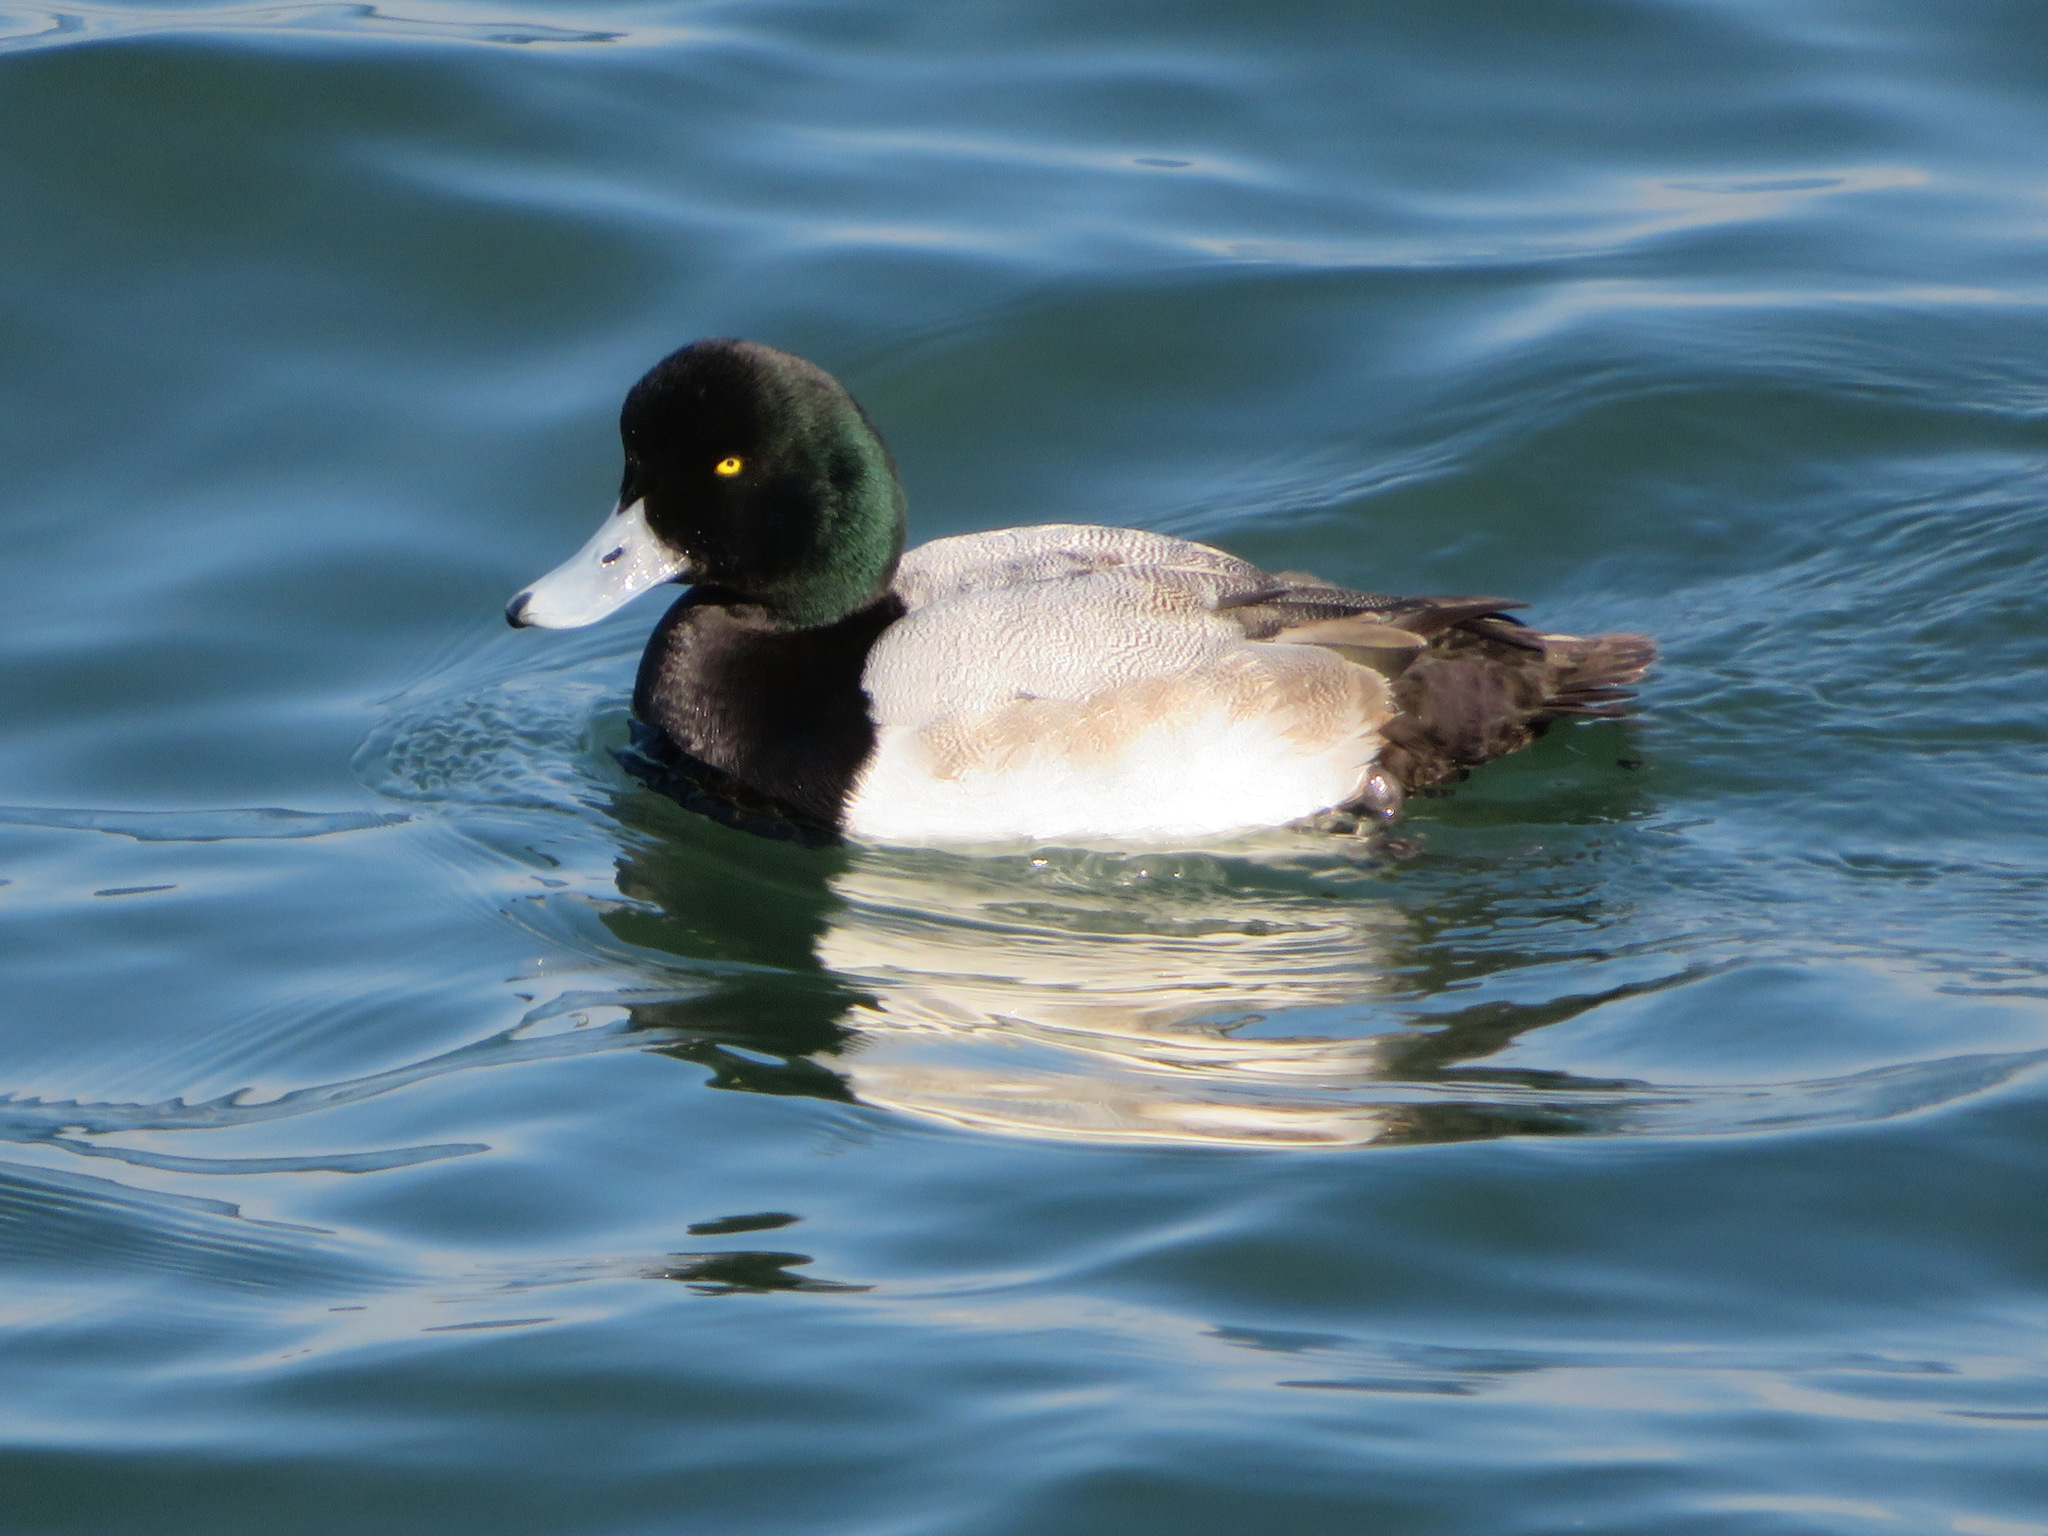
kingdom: Animalia
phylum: Chordata
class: Aves
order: Anseriformes
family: Anatidae
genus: Aythya
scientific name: Aythya marila
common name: Greater scaup
